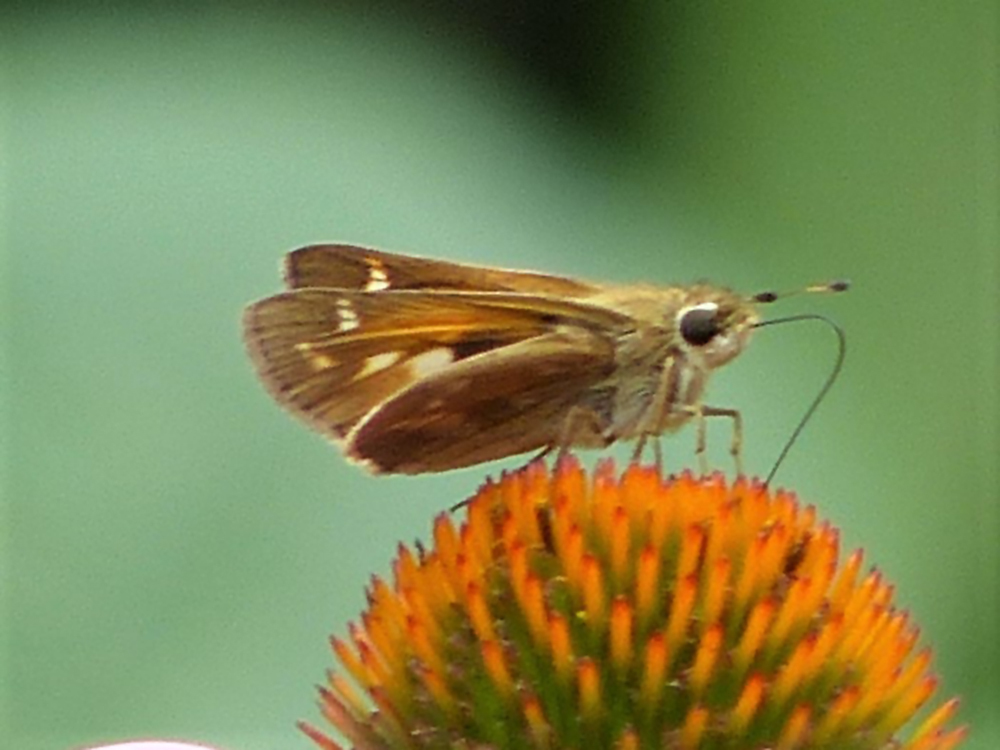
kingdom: Animalia
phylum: Arthropoda
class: Insecta
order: Lepidoptera
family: Hesperiidae
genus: Atalopedes
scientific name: Atalopedes
